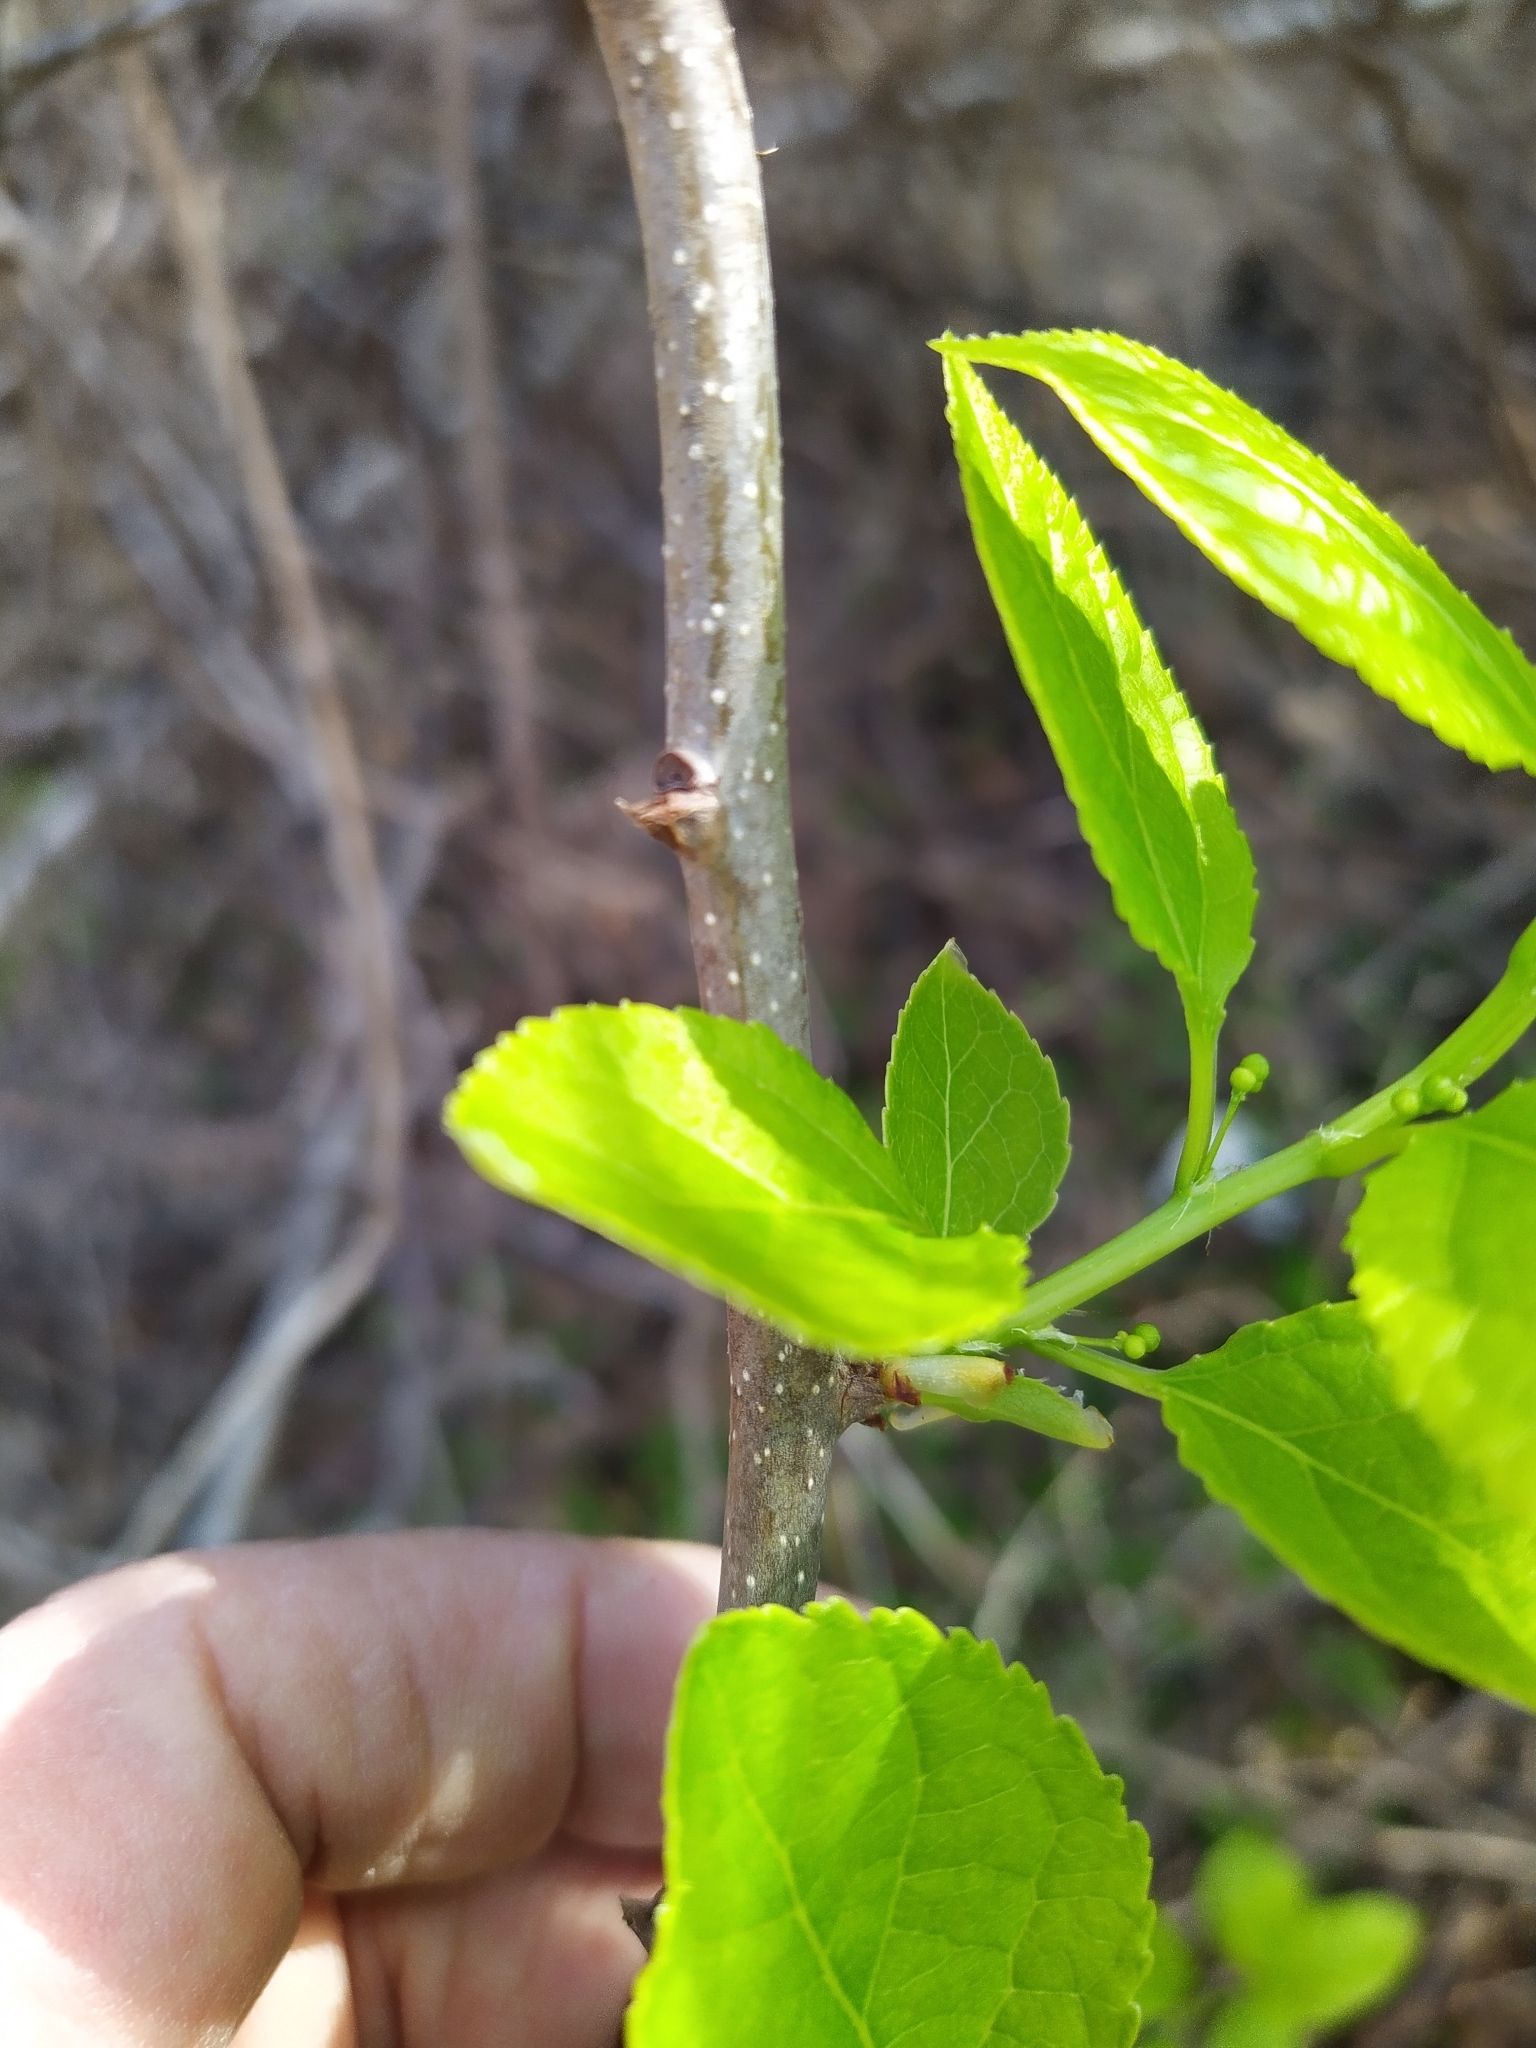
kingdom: Plantae
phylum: Tracheophyta
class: Magnoliopsida
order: Celastrales
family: Celastraceae
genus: Celastrus
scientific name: Celastrus orbiculatus
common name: Oriental bittersweet
